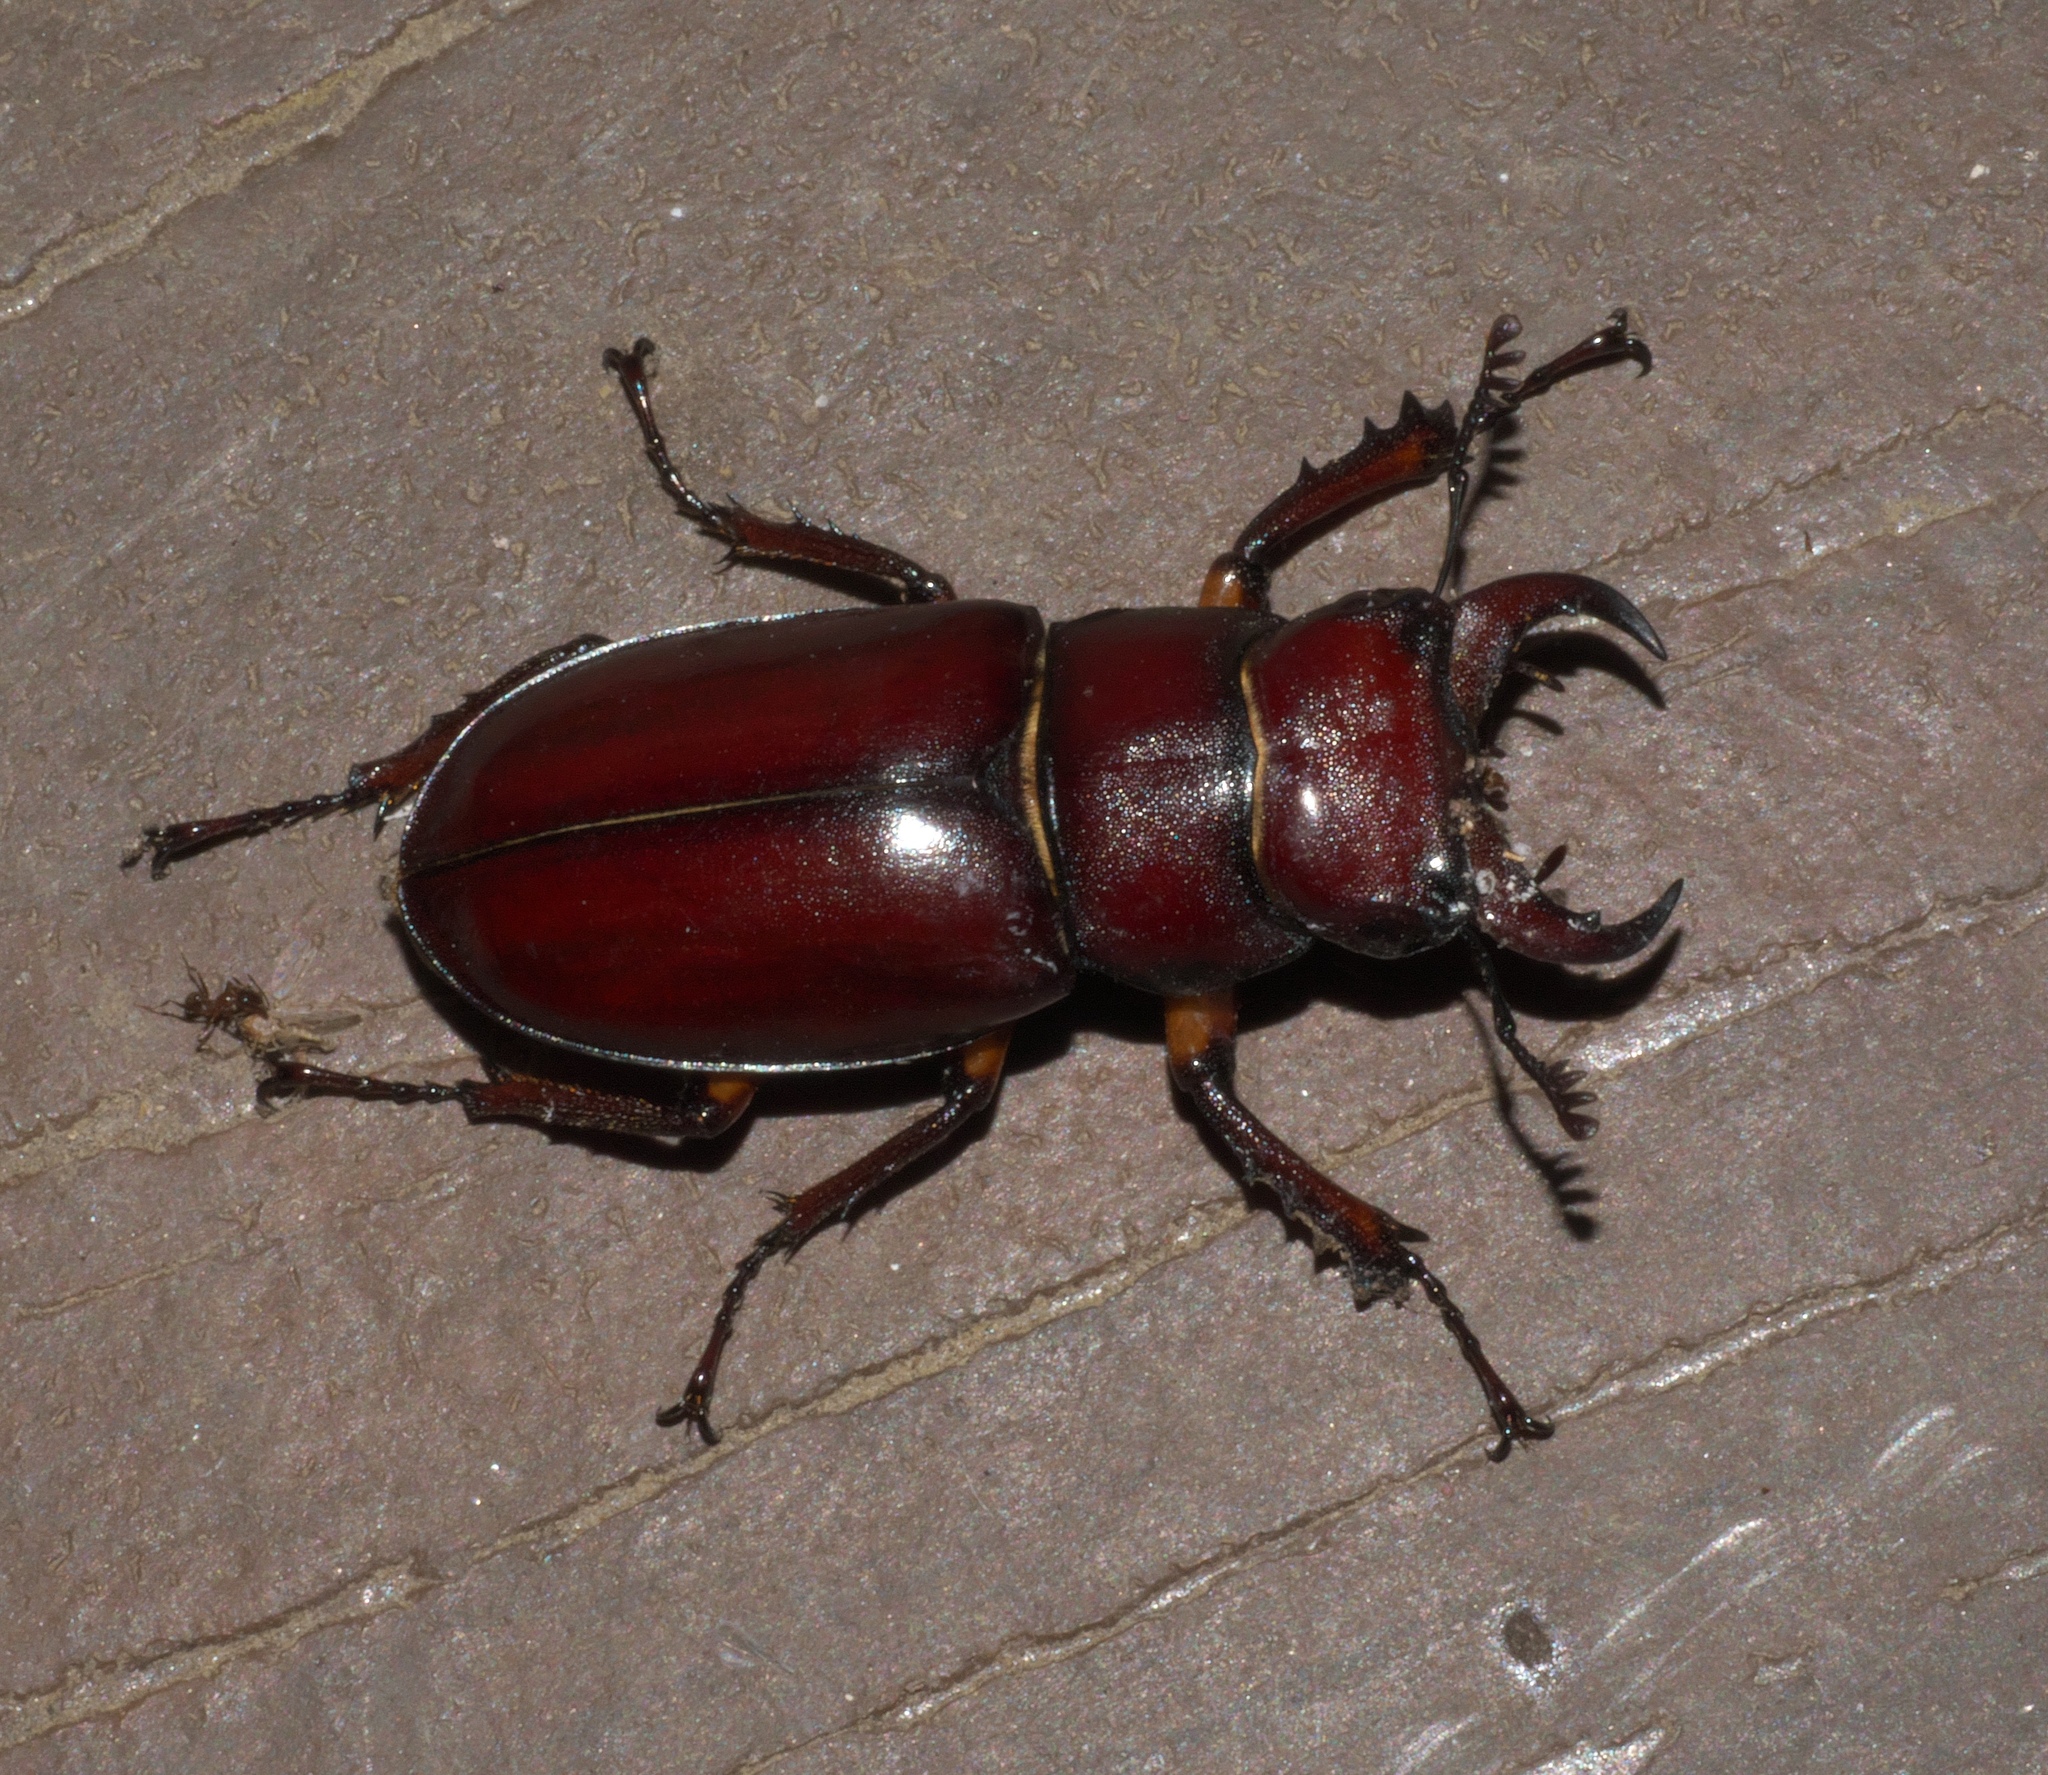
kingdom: Animalia
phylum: Arthropoda
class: Insecta
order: Coleoptera
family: Lucanidae
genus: Lucanus
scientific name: Lucanus capreolus
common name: Stag beetle
